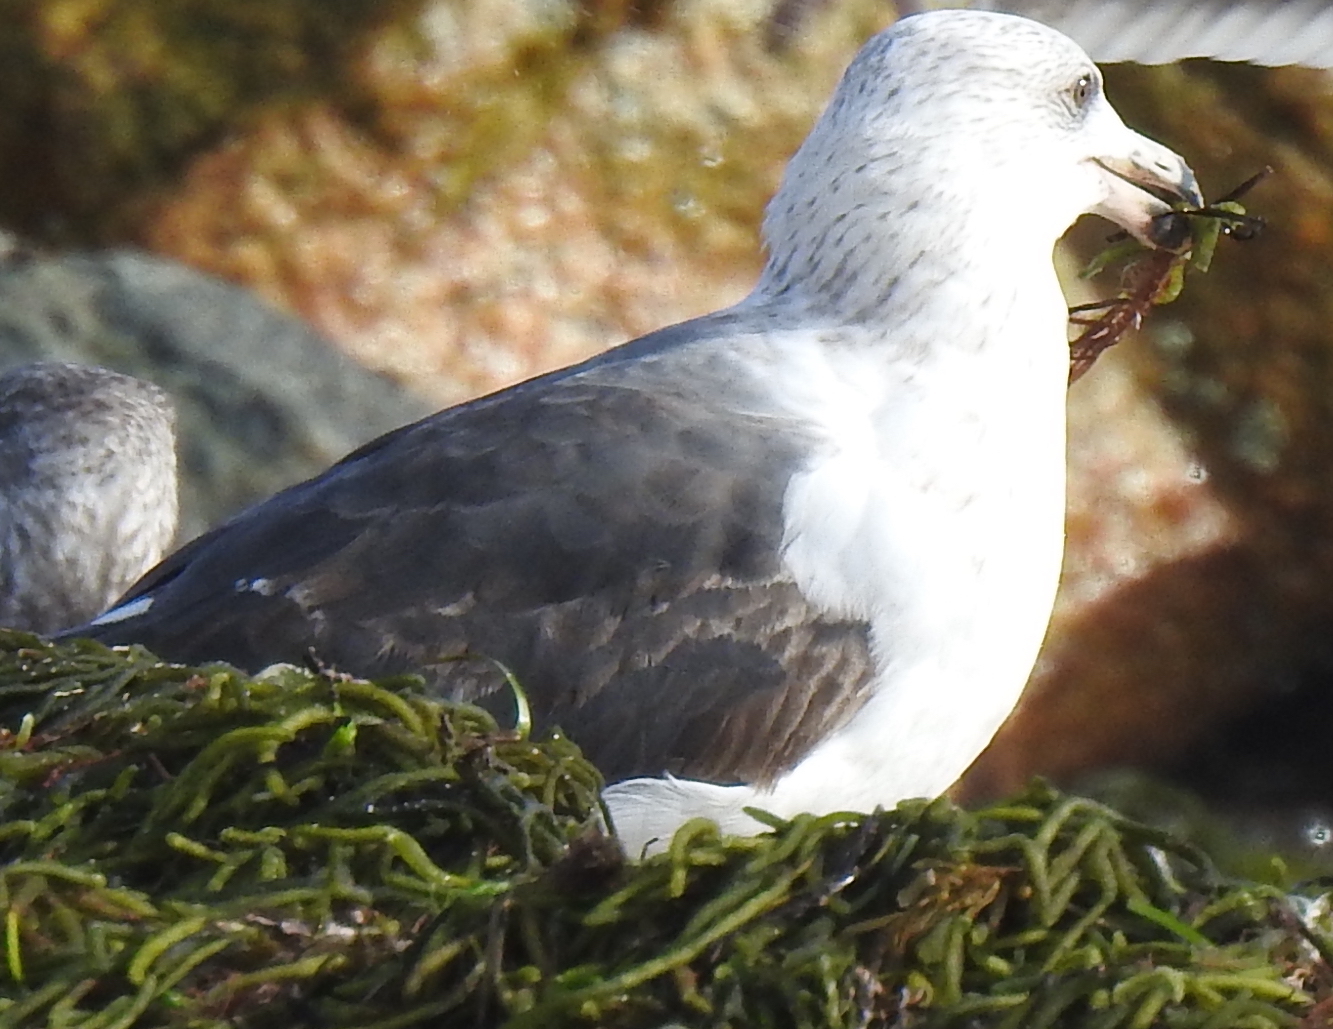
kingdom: Animalia
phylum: Chordata
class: Aves
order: Charadriiformes
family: Laridae
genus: Larus
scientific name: Larus marinus
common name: Great black-backed gull
